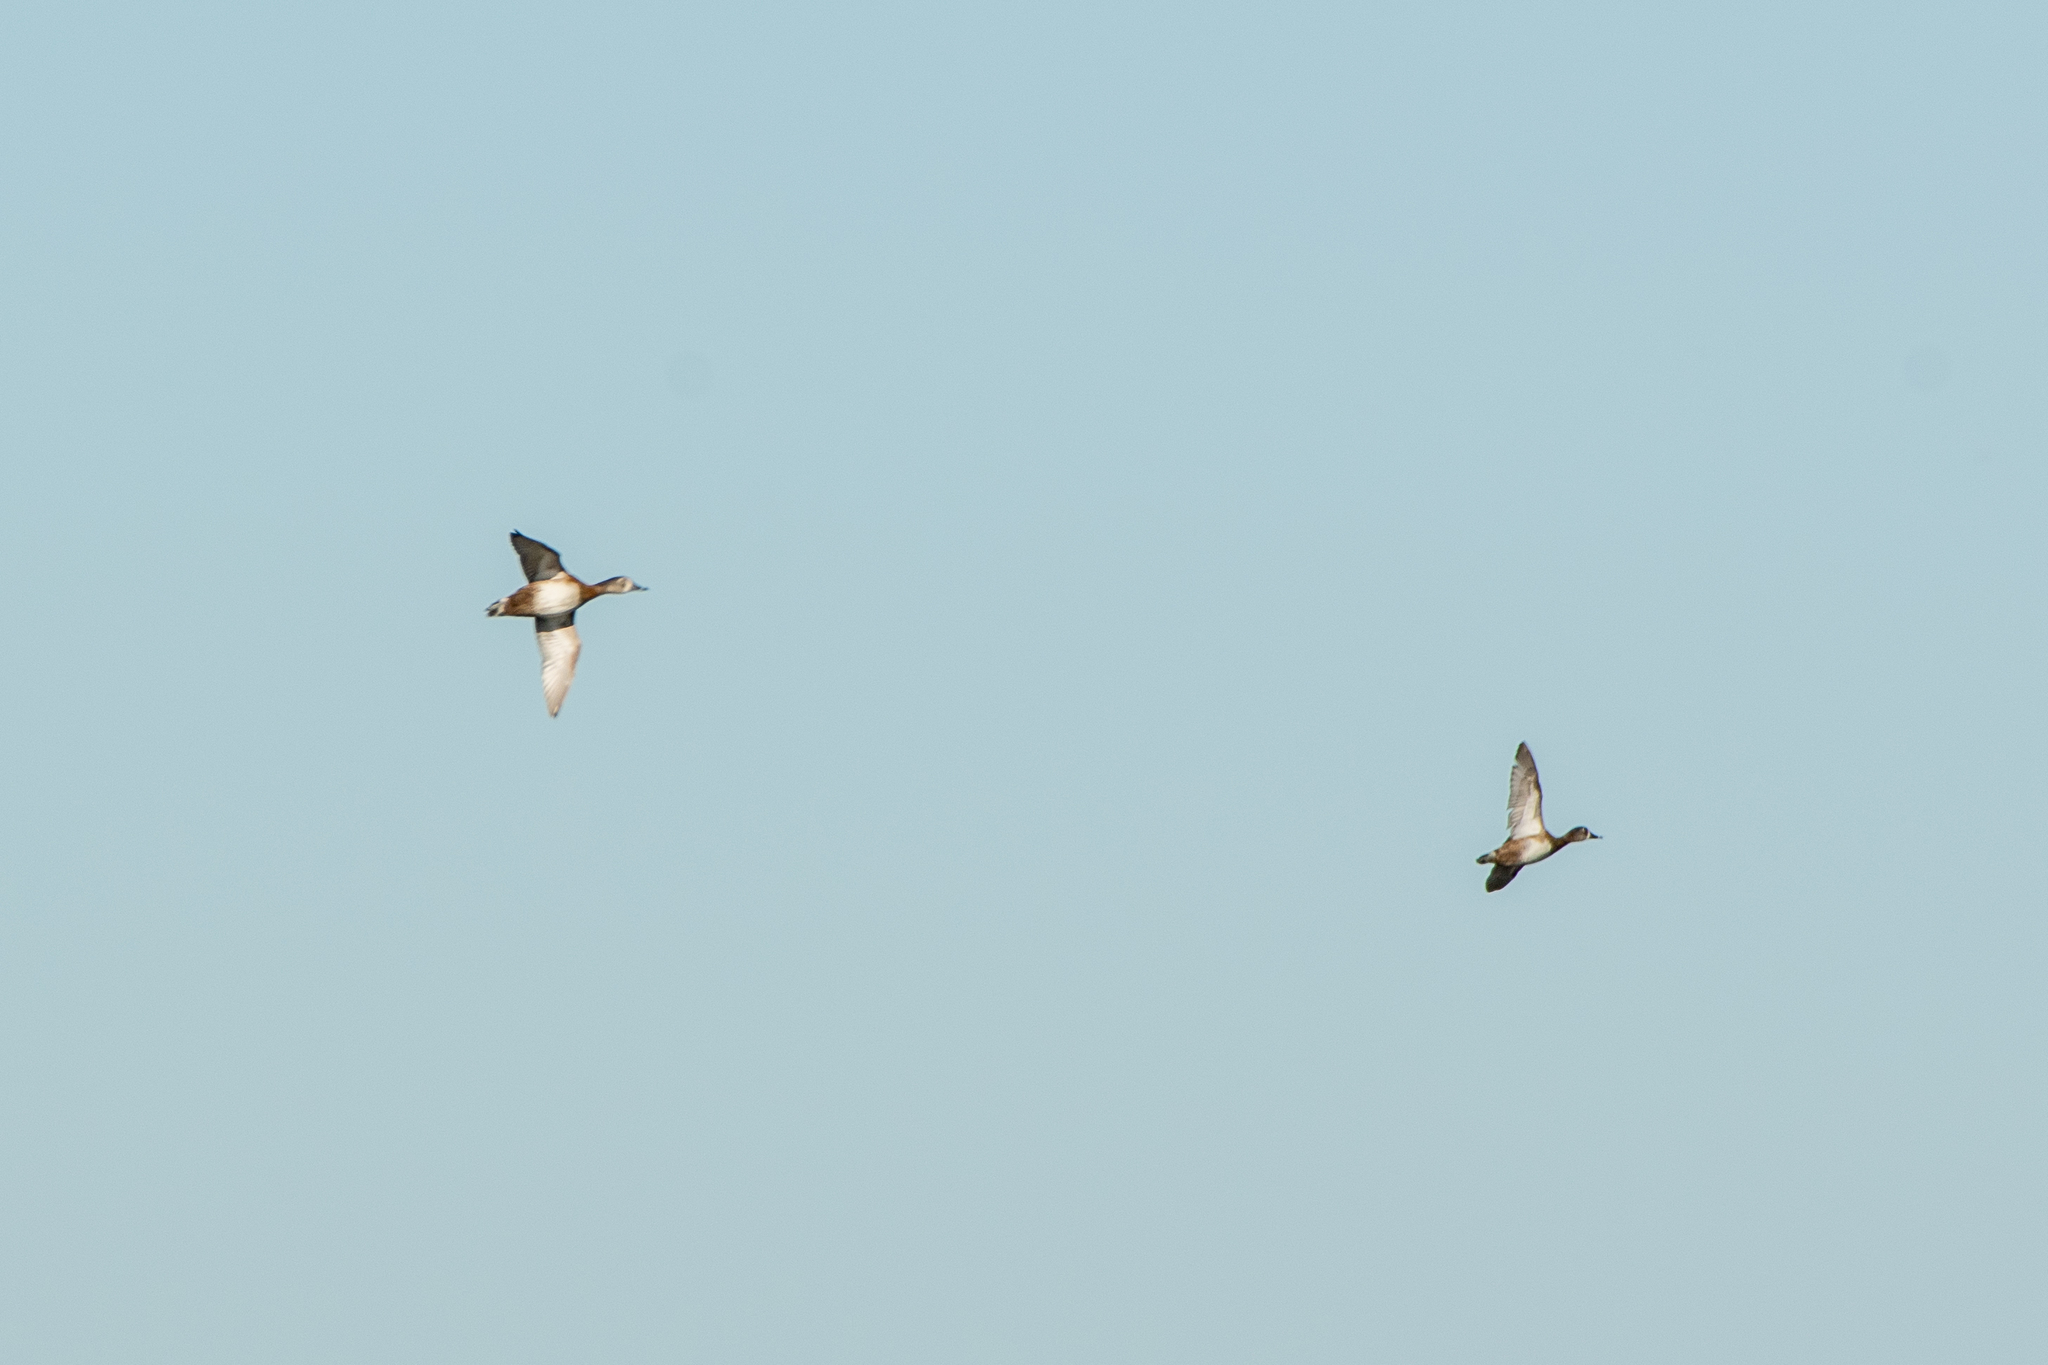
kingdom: Animalia
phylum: Chordata
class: Aves
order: Anseriformes
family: Anatidae
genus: Aythya
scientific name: Aythya collaris
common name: Ring-necked duck
